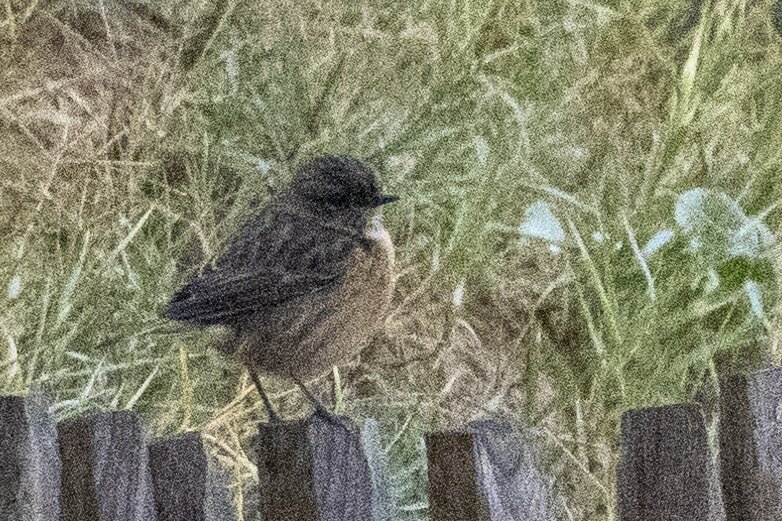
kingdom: Animalia
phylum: Chordata
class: Aves
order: Passeriformes
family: Muscicapidae
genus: Saxicola
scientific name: Saxicola rubicola
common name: European stonechat
